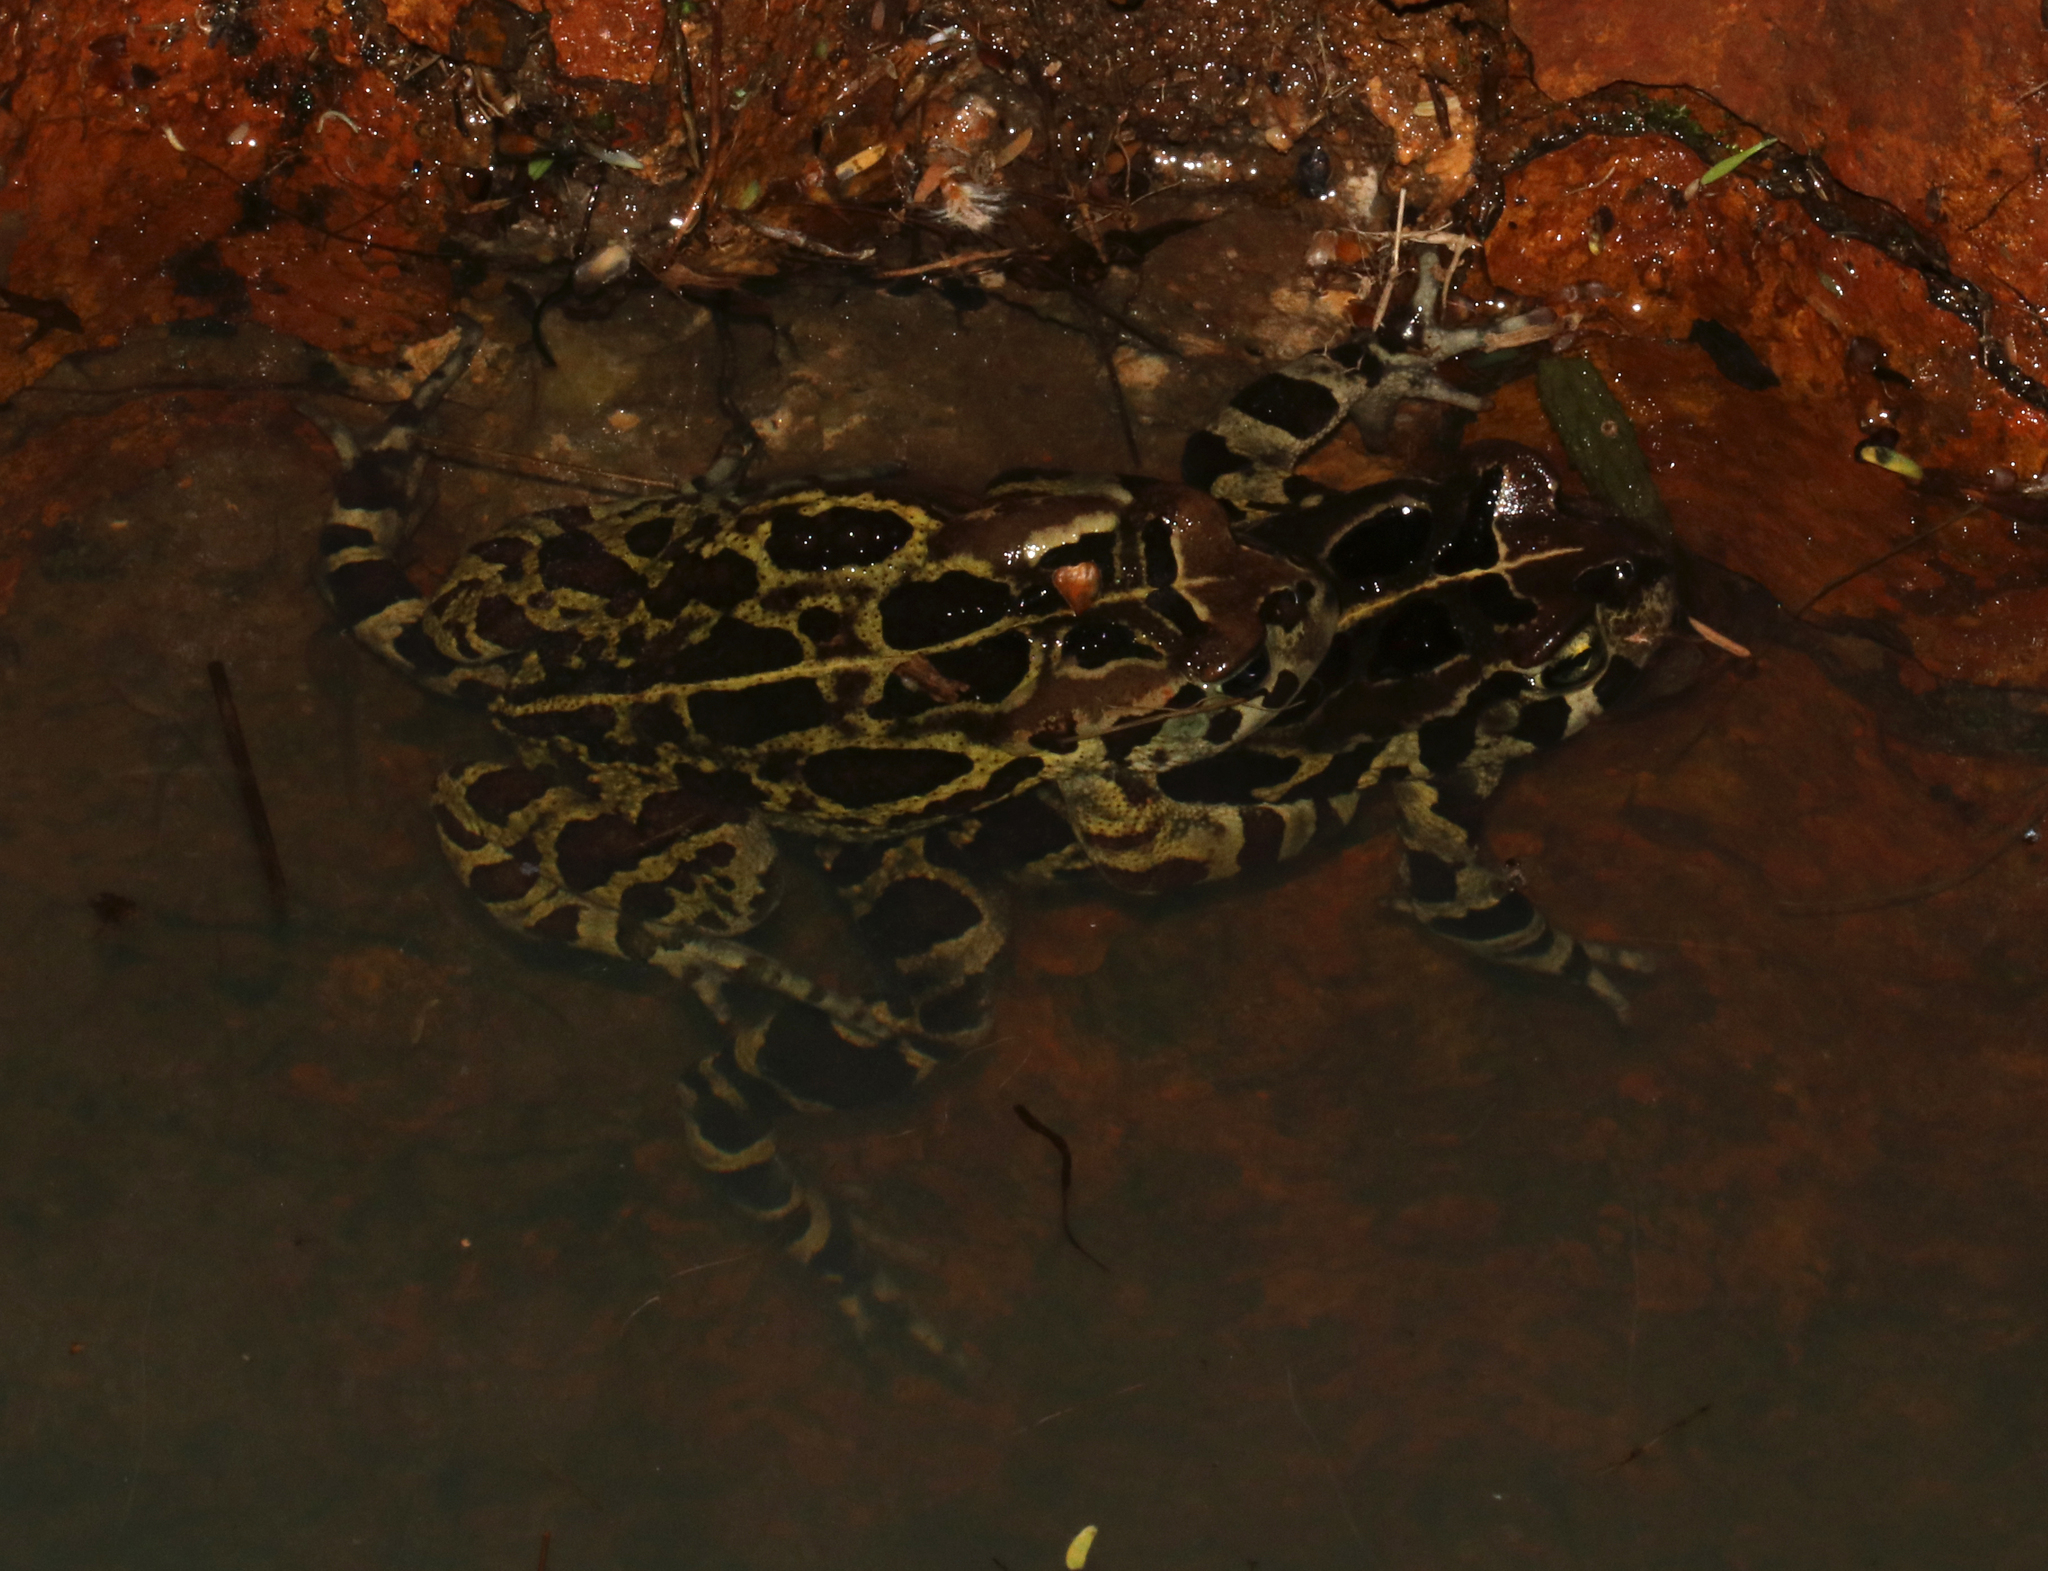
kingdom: Animalia
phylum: Chordata
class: Amphibia
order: Anura
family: Bufonidae
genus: Sclerophrys
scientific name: Sclerophrys pantherina
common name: Panther toad
